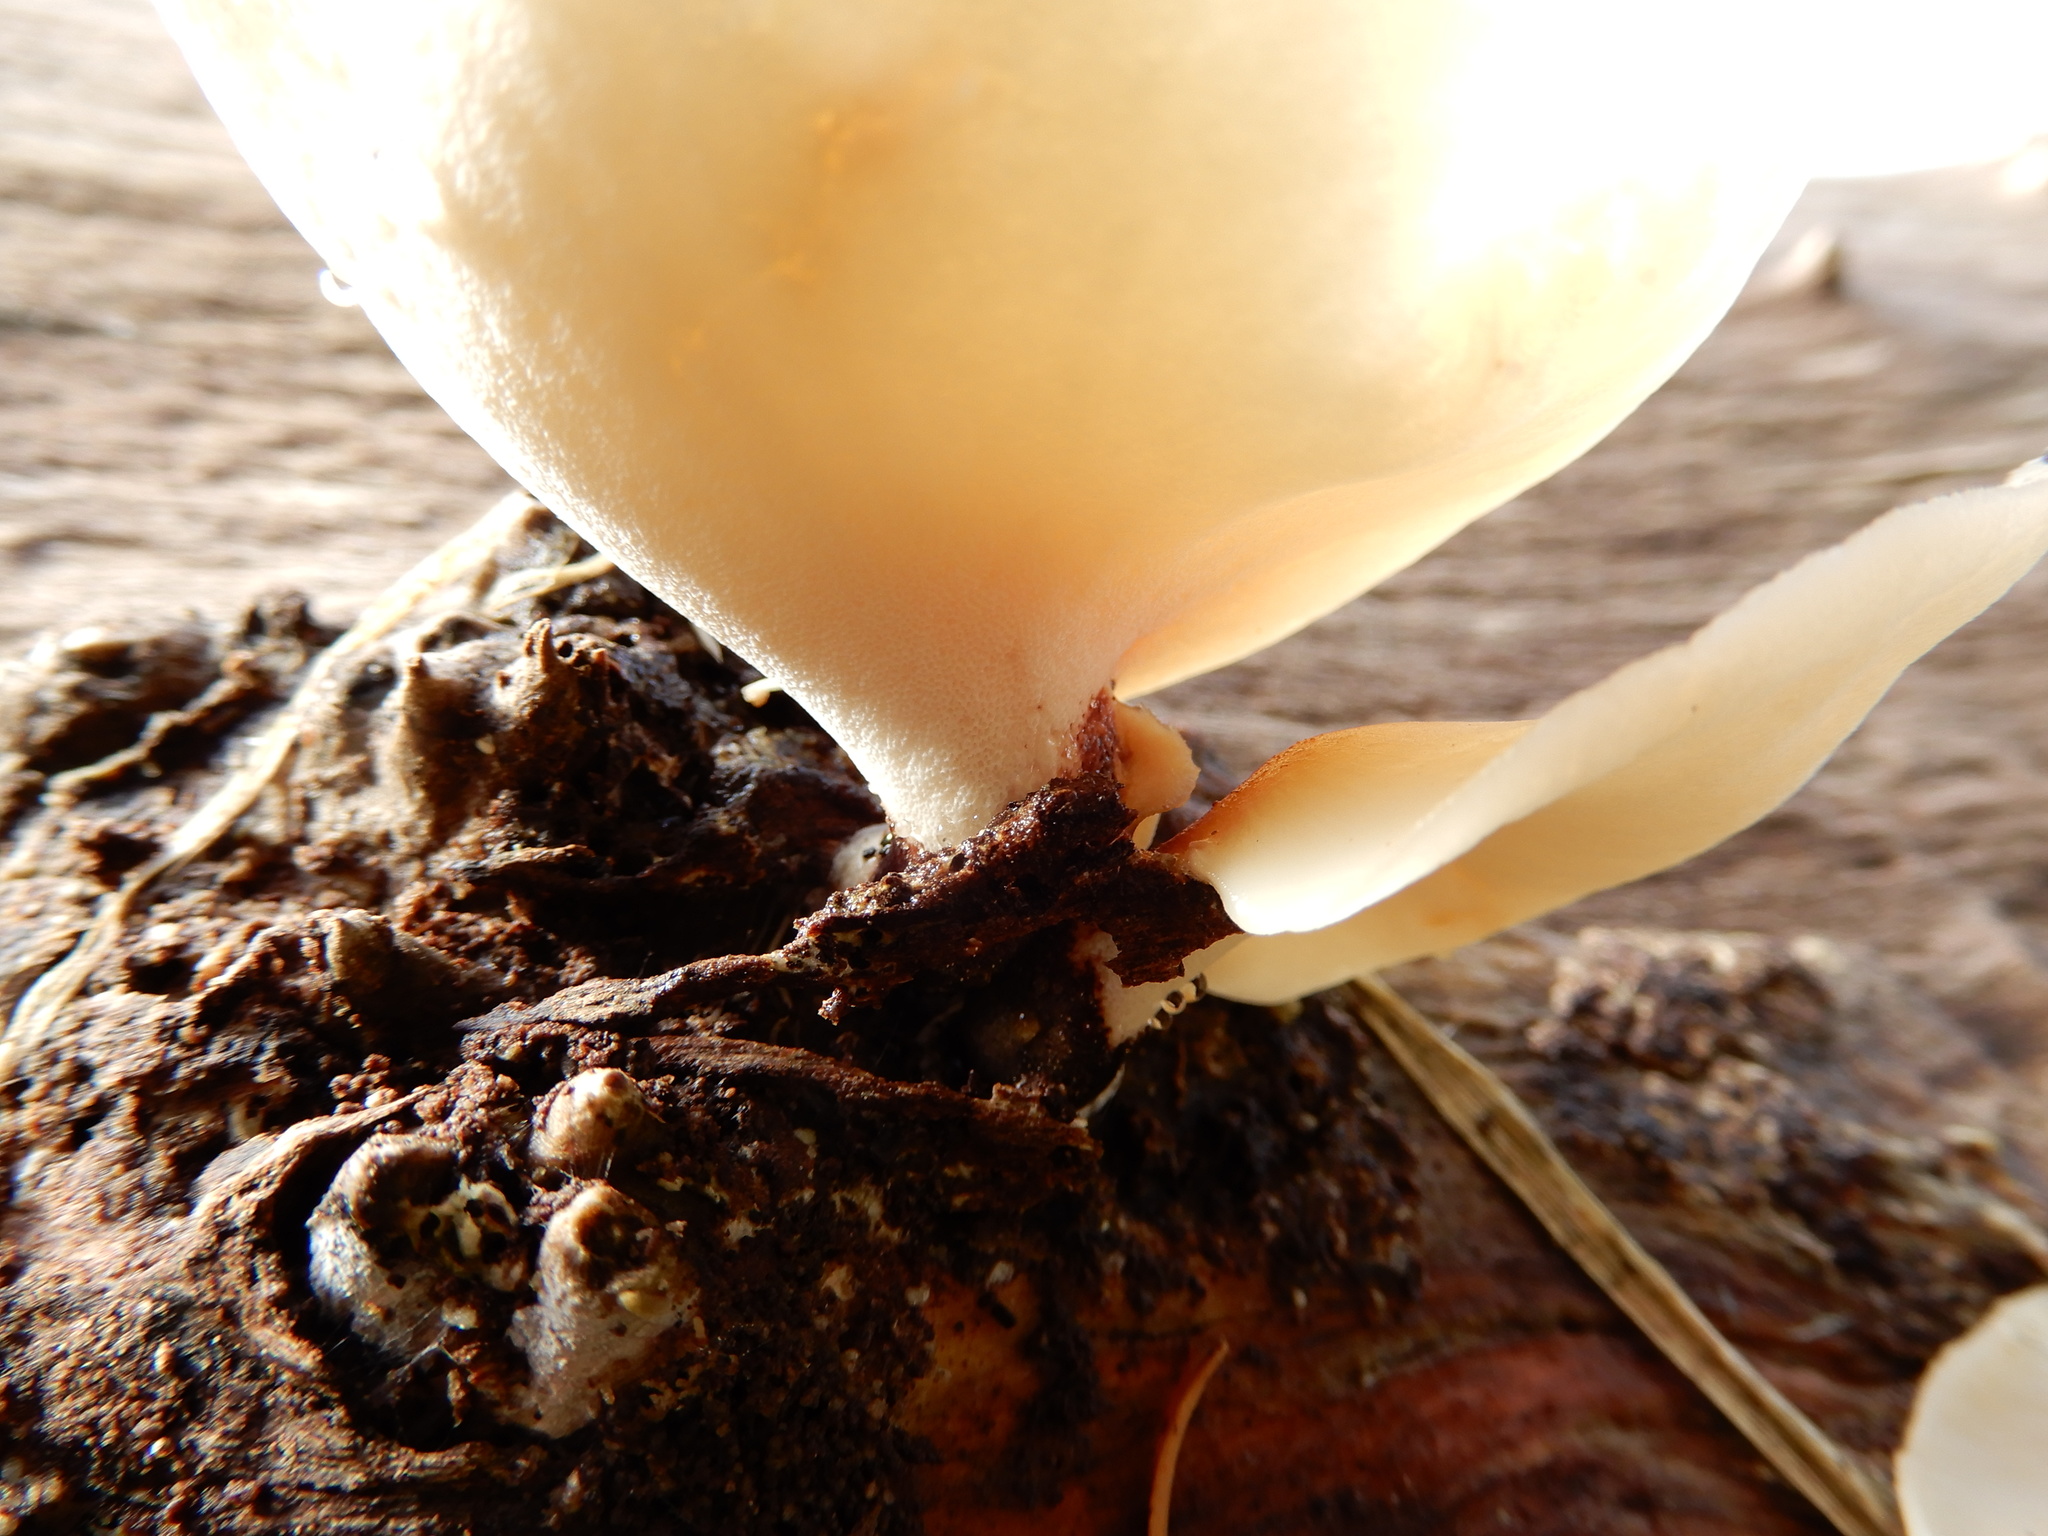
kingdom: Fungi
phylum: Basidiomycota
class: Agaricomycetes
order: Polyporales
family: Polyporaceae
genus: Picipes
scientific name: Picipes badius
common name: Bay polypore
